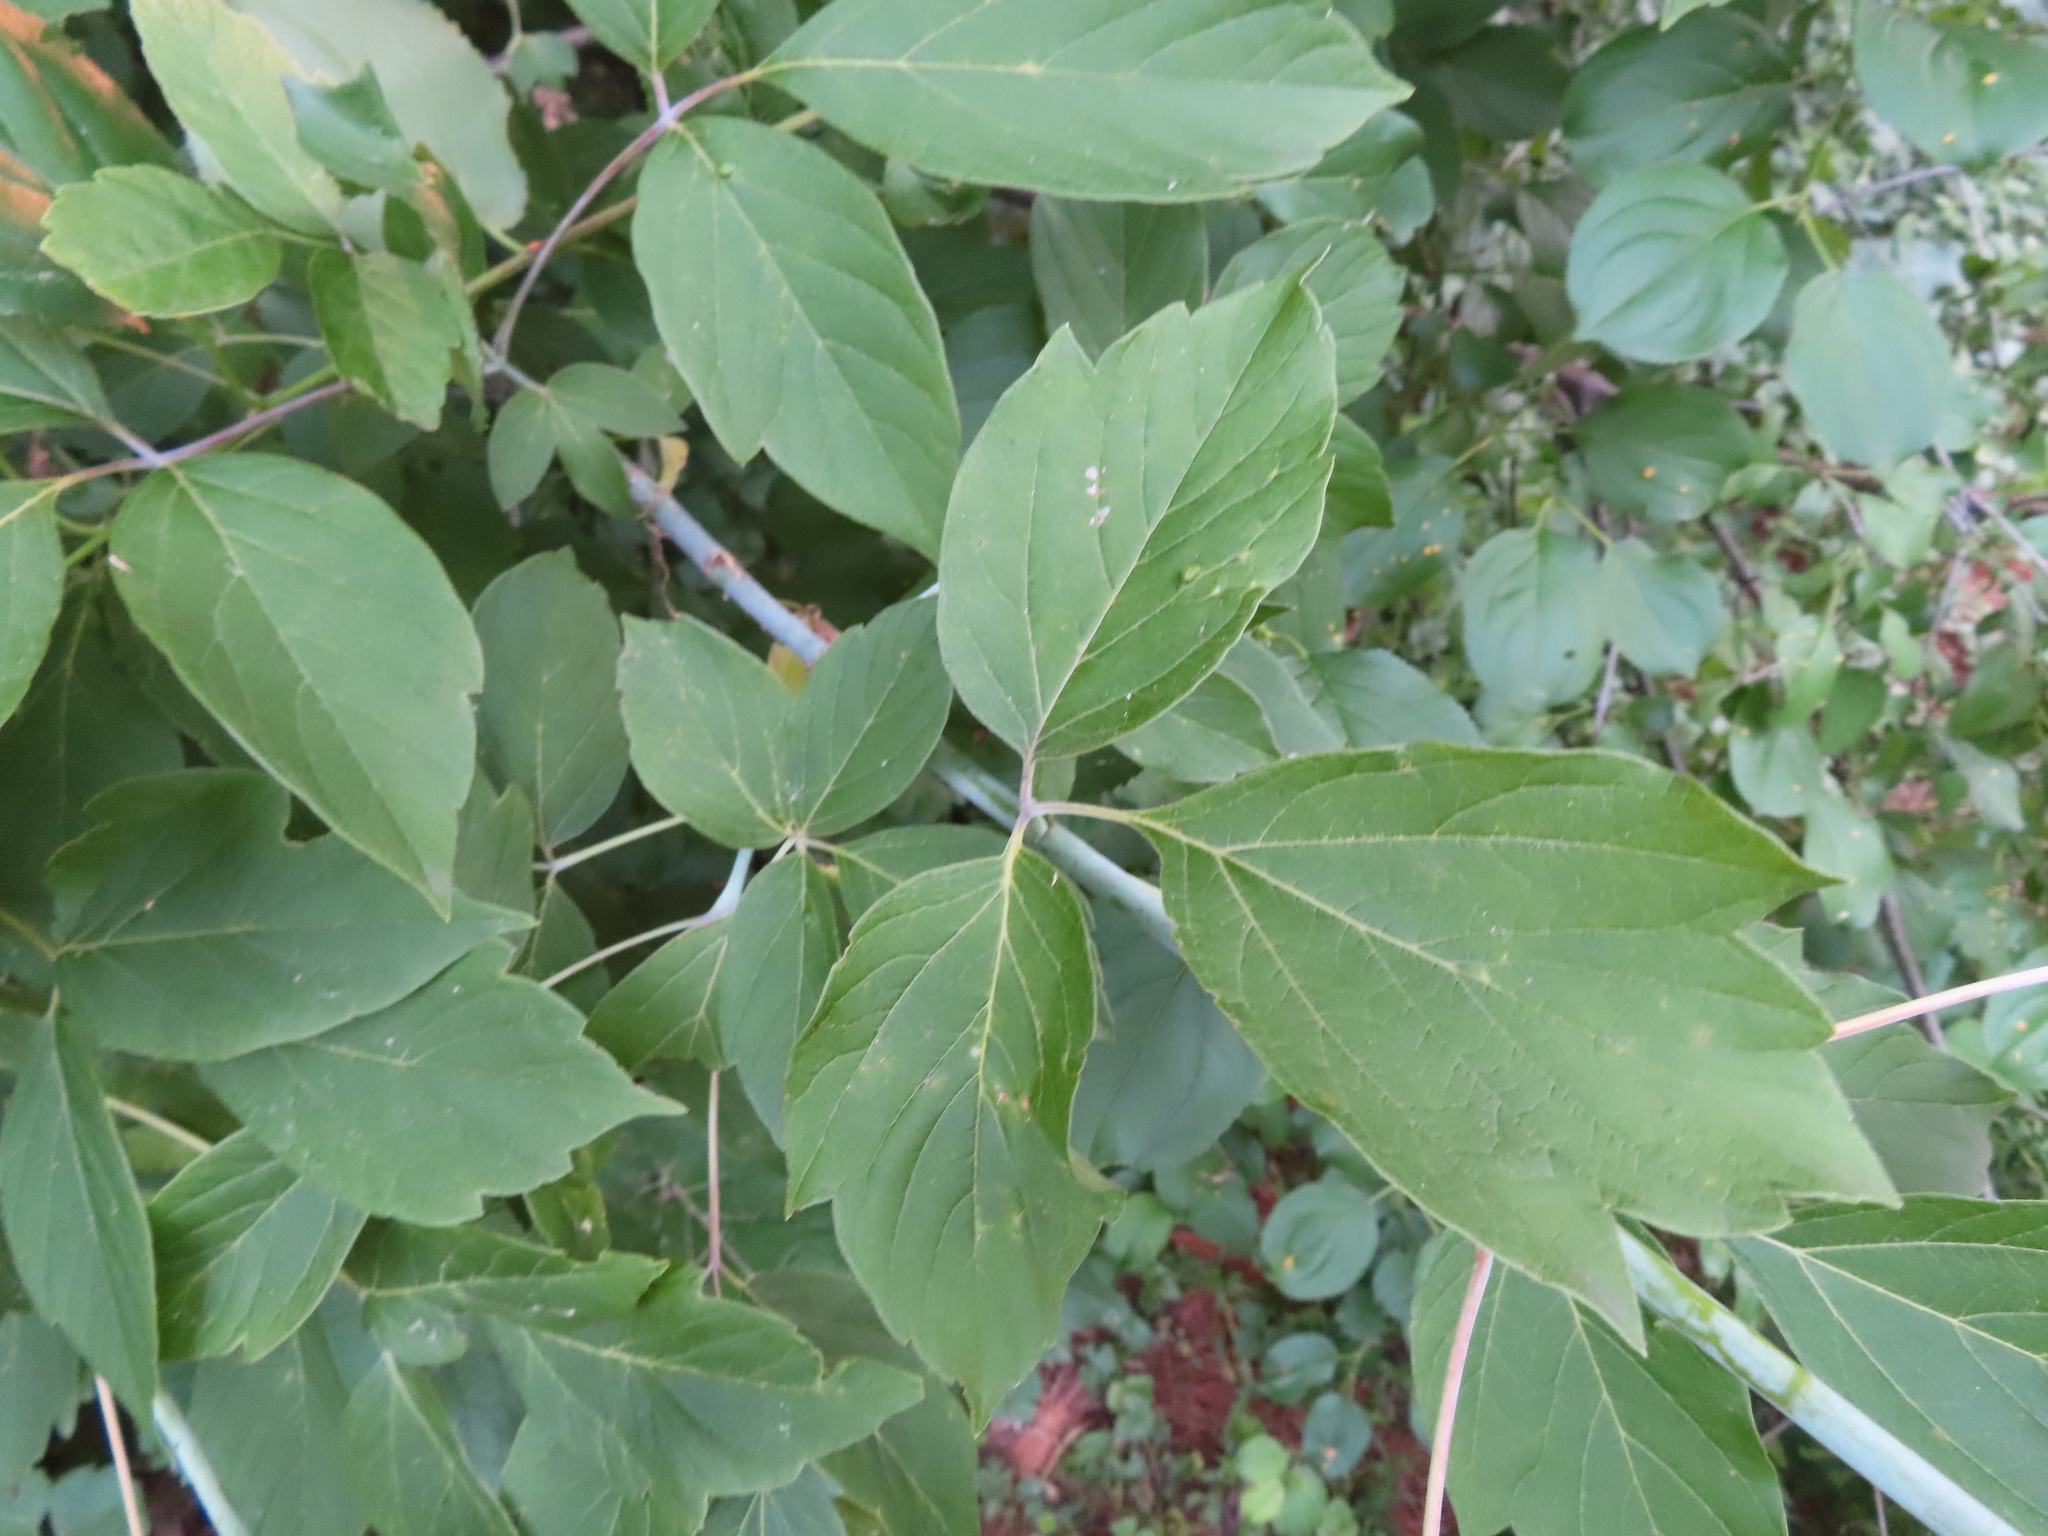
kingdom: Plantae
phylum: Tracheophyta
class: Magnoliopsida
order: Sapindales
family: Sapindaceae
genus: Acer
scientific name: Acer negundo
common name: Ashleaf maple
